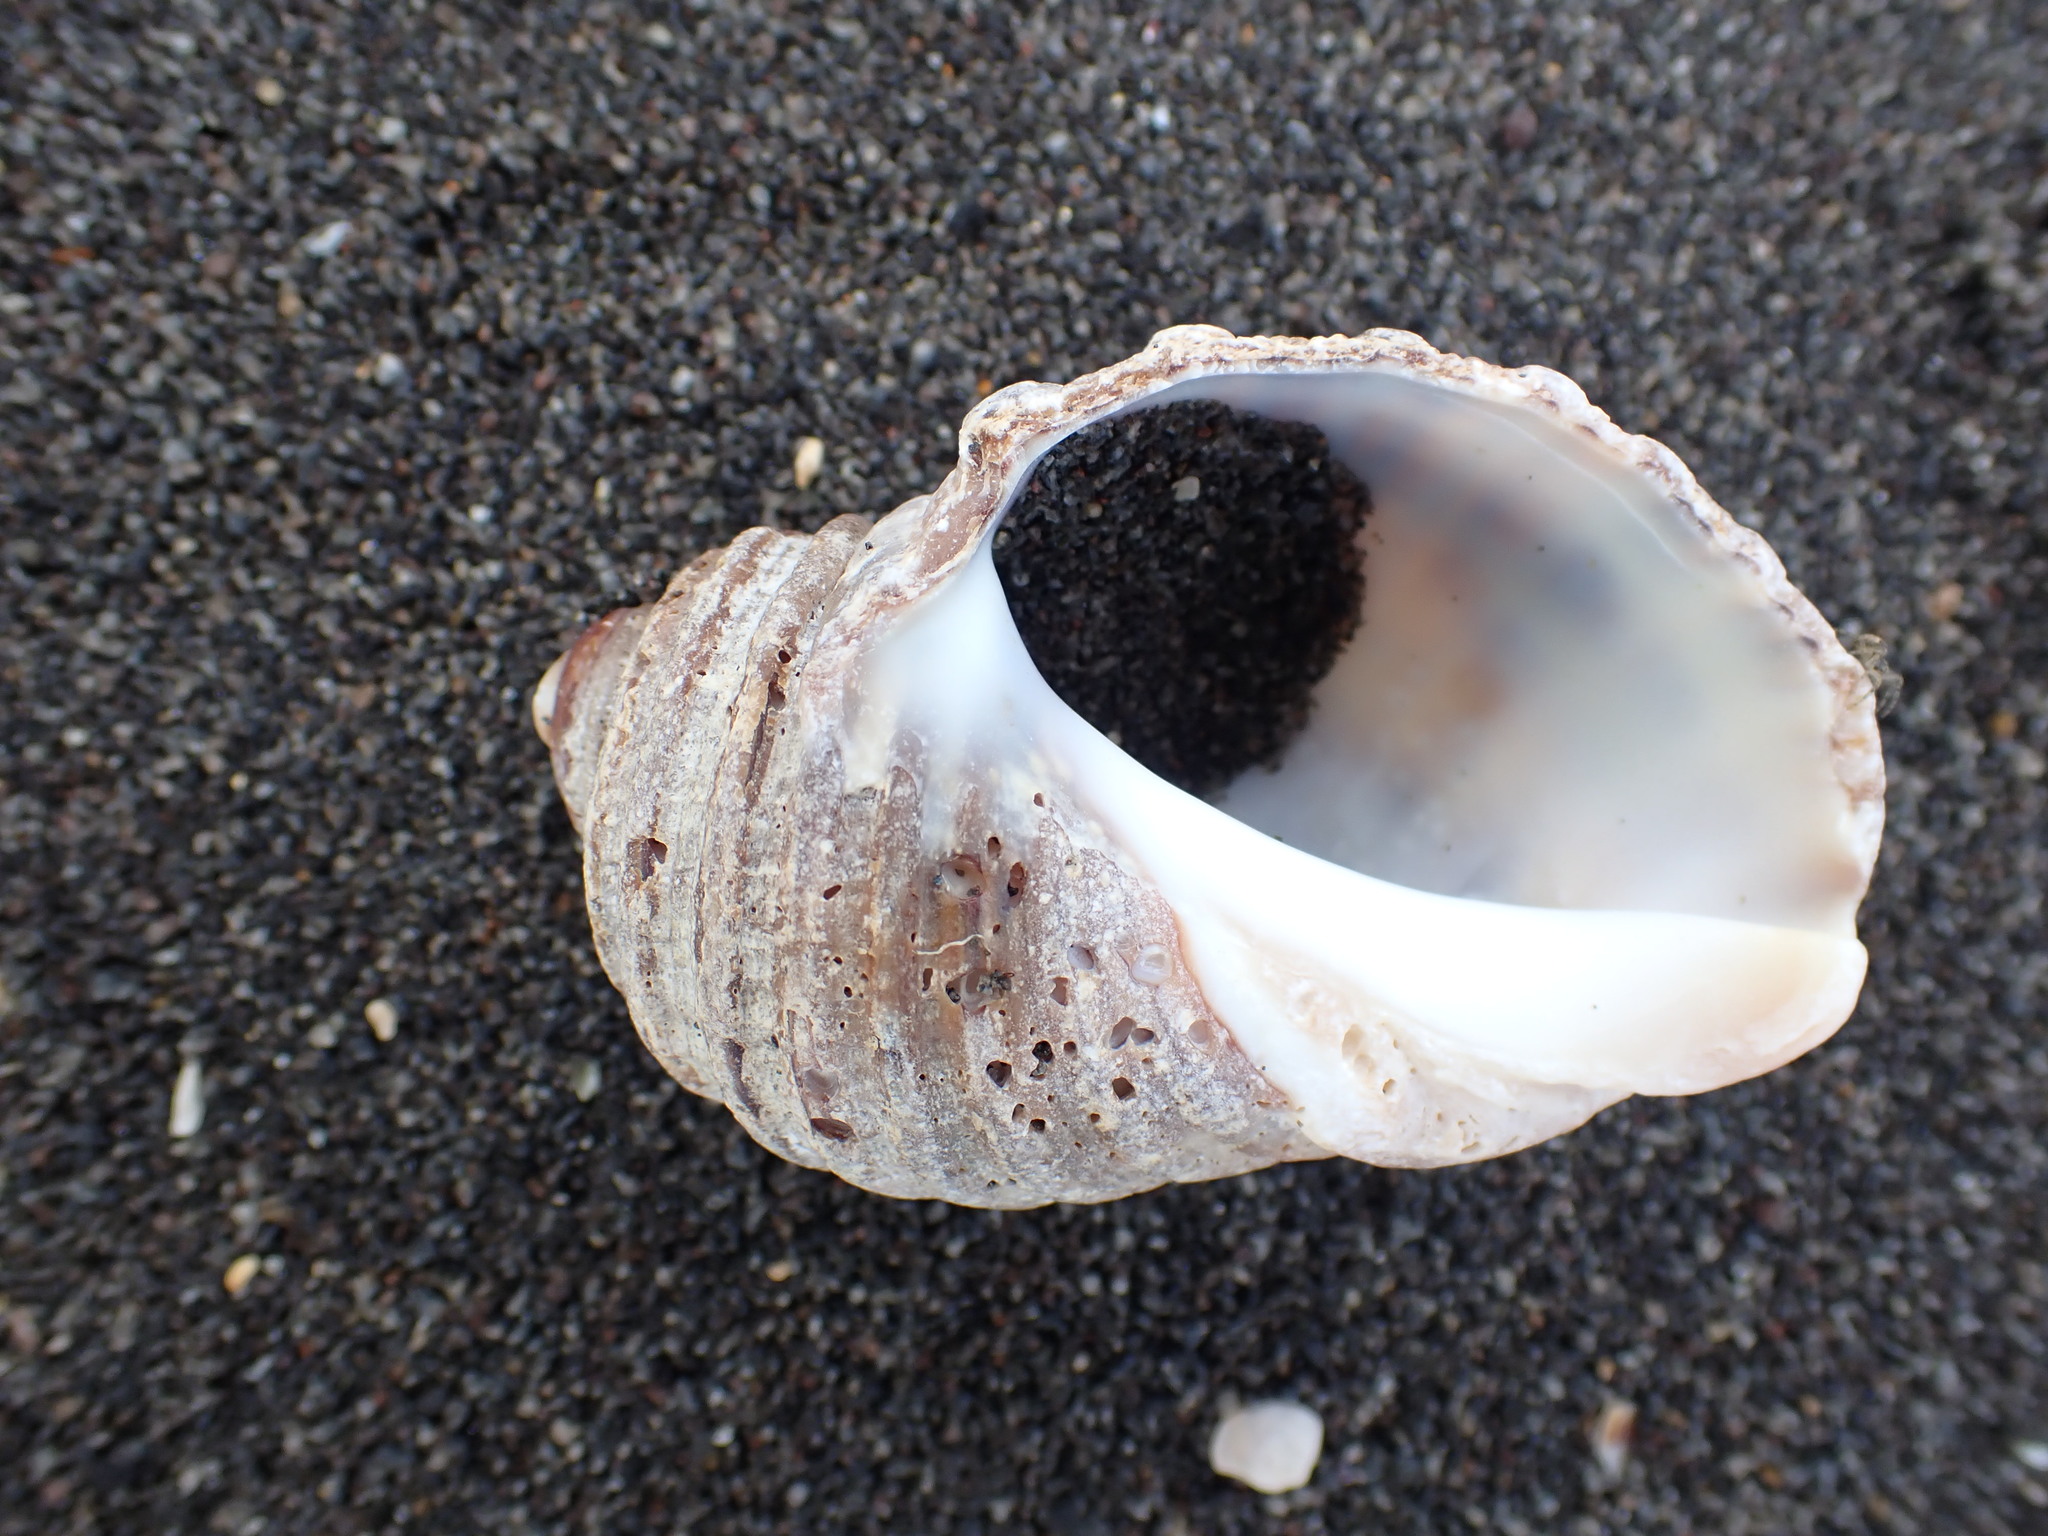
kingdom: Animalia
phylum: Mollusca
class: Gastropoda
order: Neogastropoda
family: Muricidae
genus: Dicathais
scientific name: Dicathais orbita
